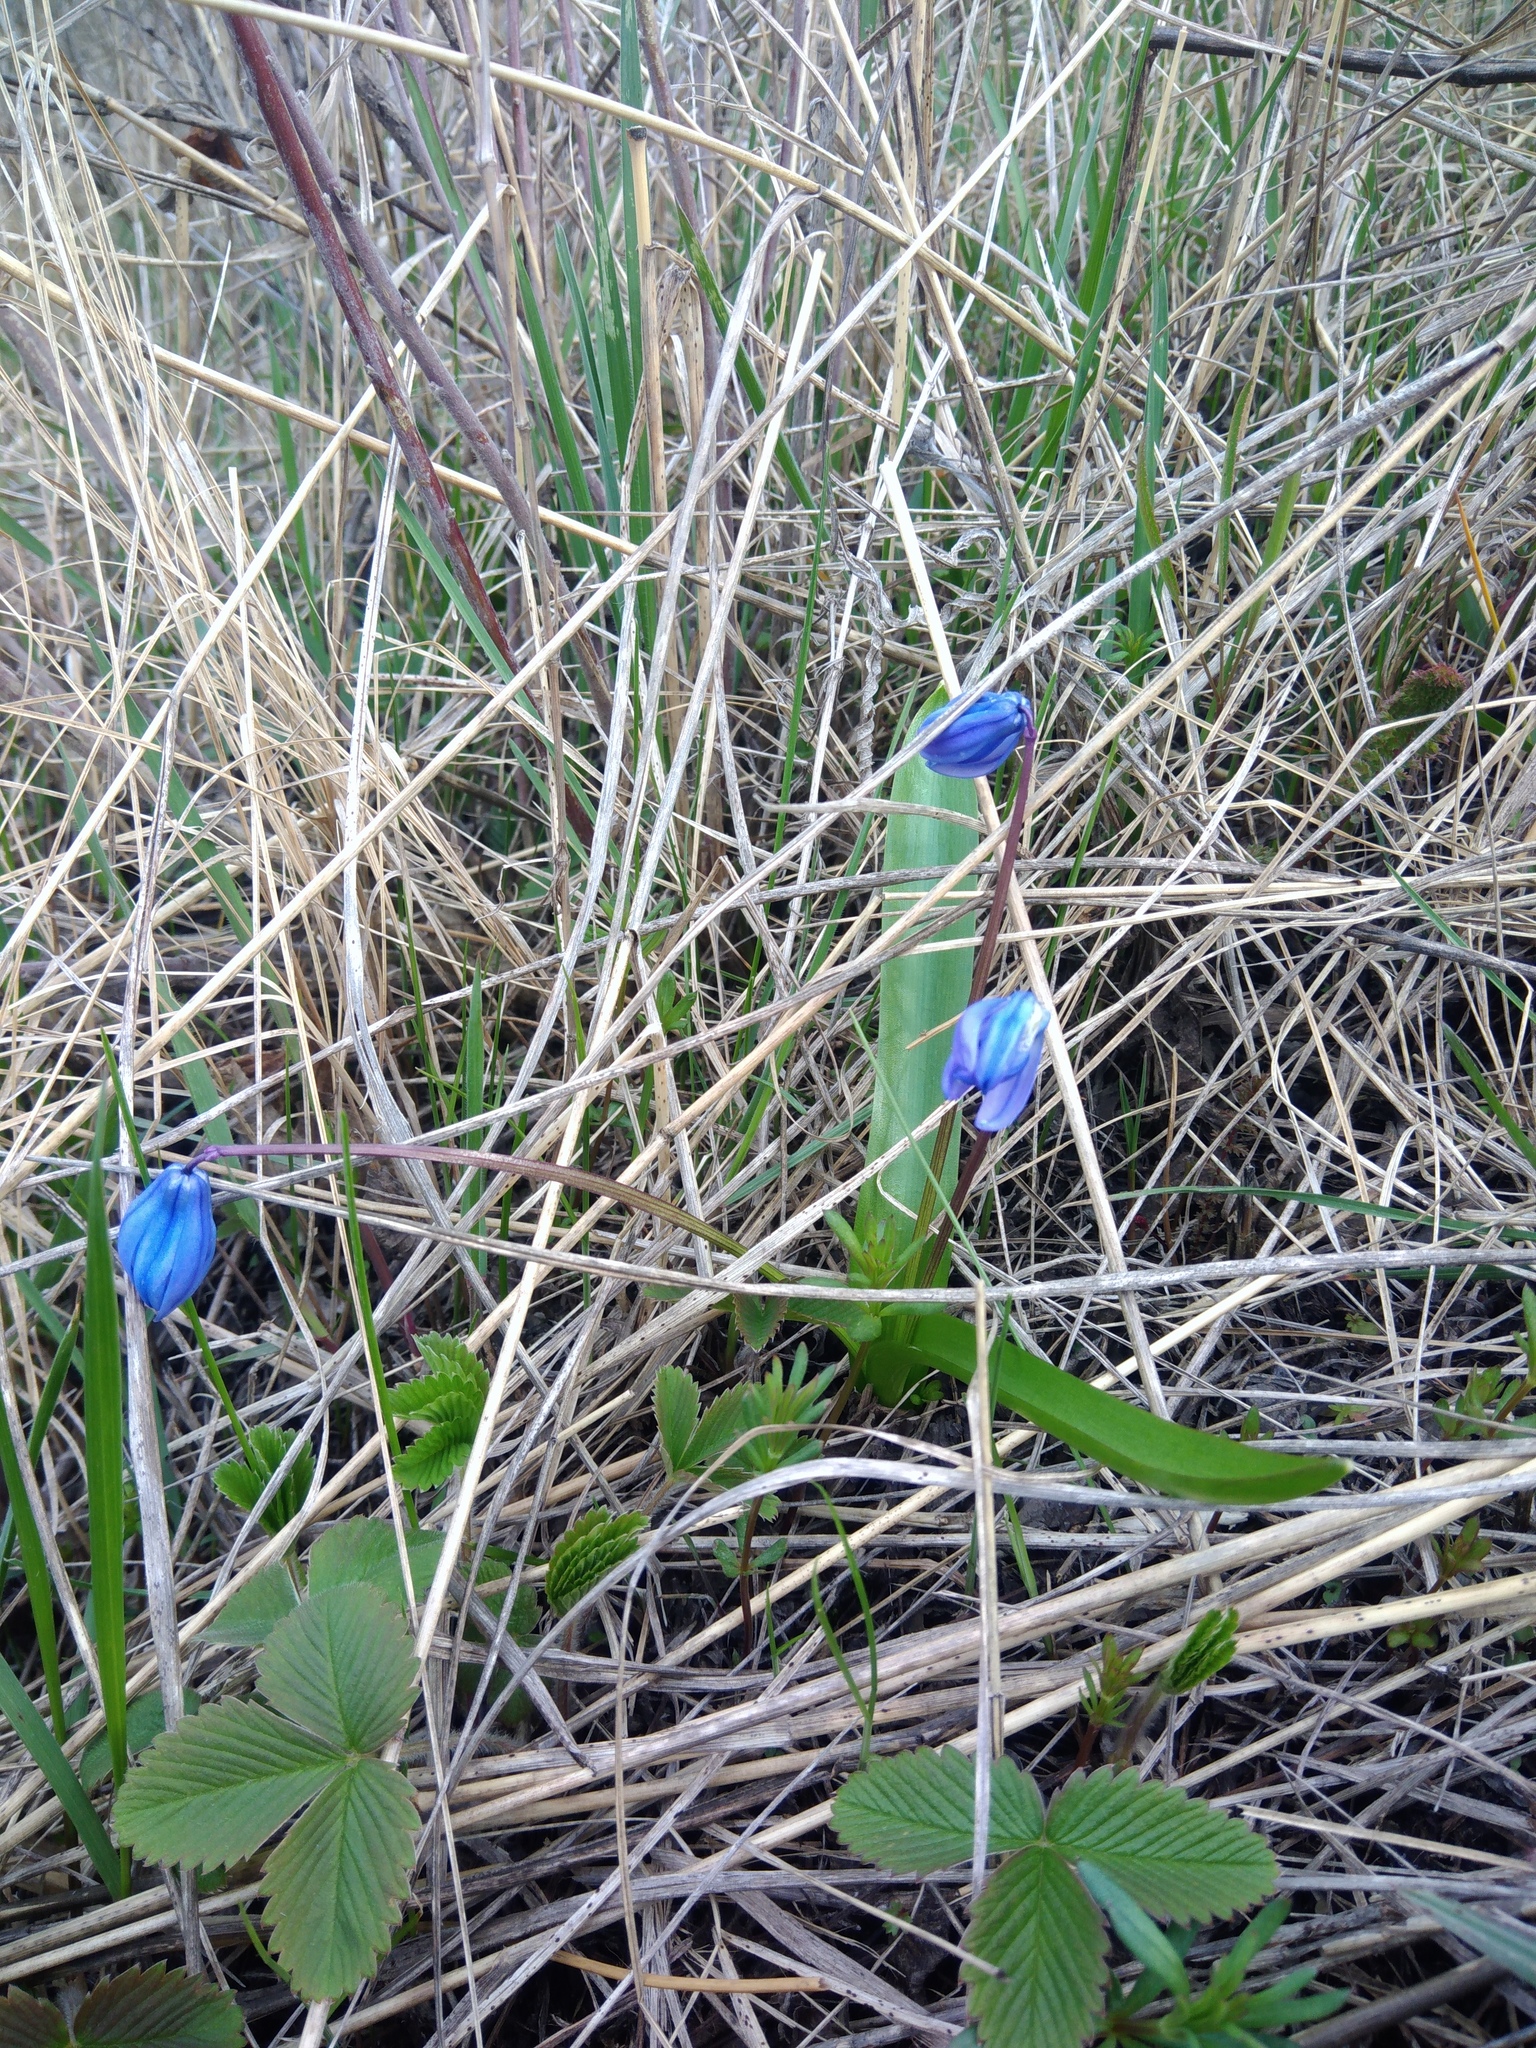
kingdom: Plantae
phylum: Tracheophyta
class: Liliopsida
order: Asparagales
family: Asparagaceae
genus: Scilla
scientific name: Scilla siberica
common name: Siberian squill
